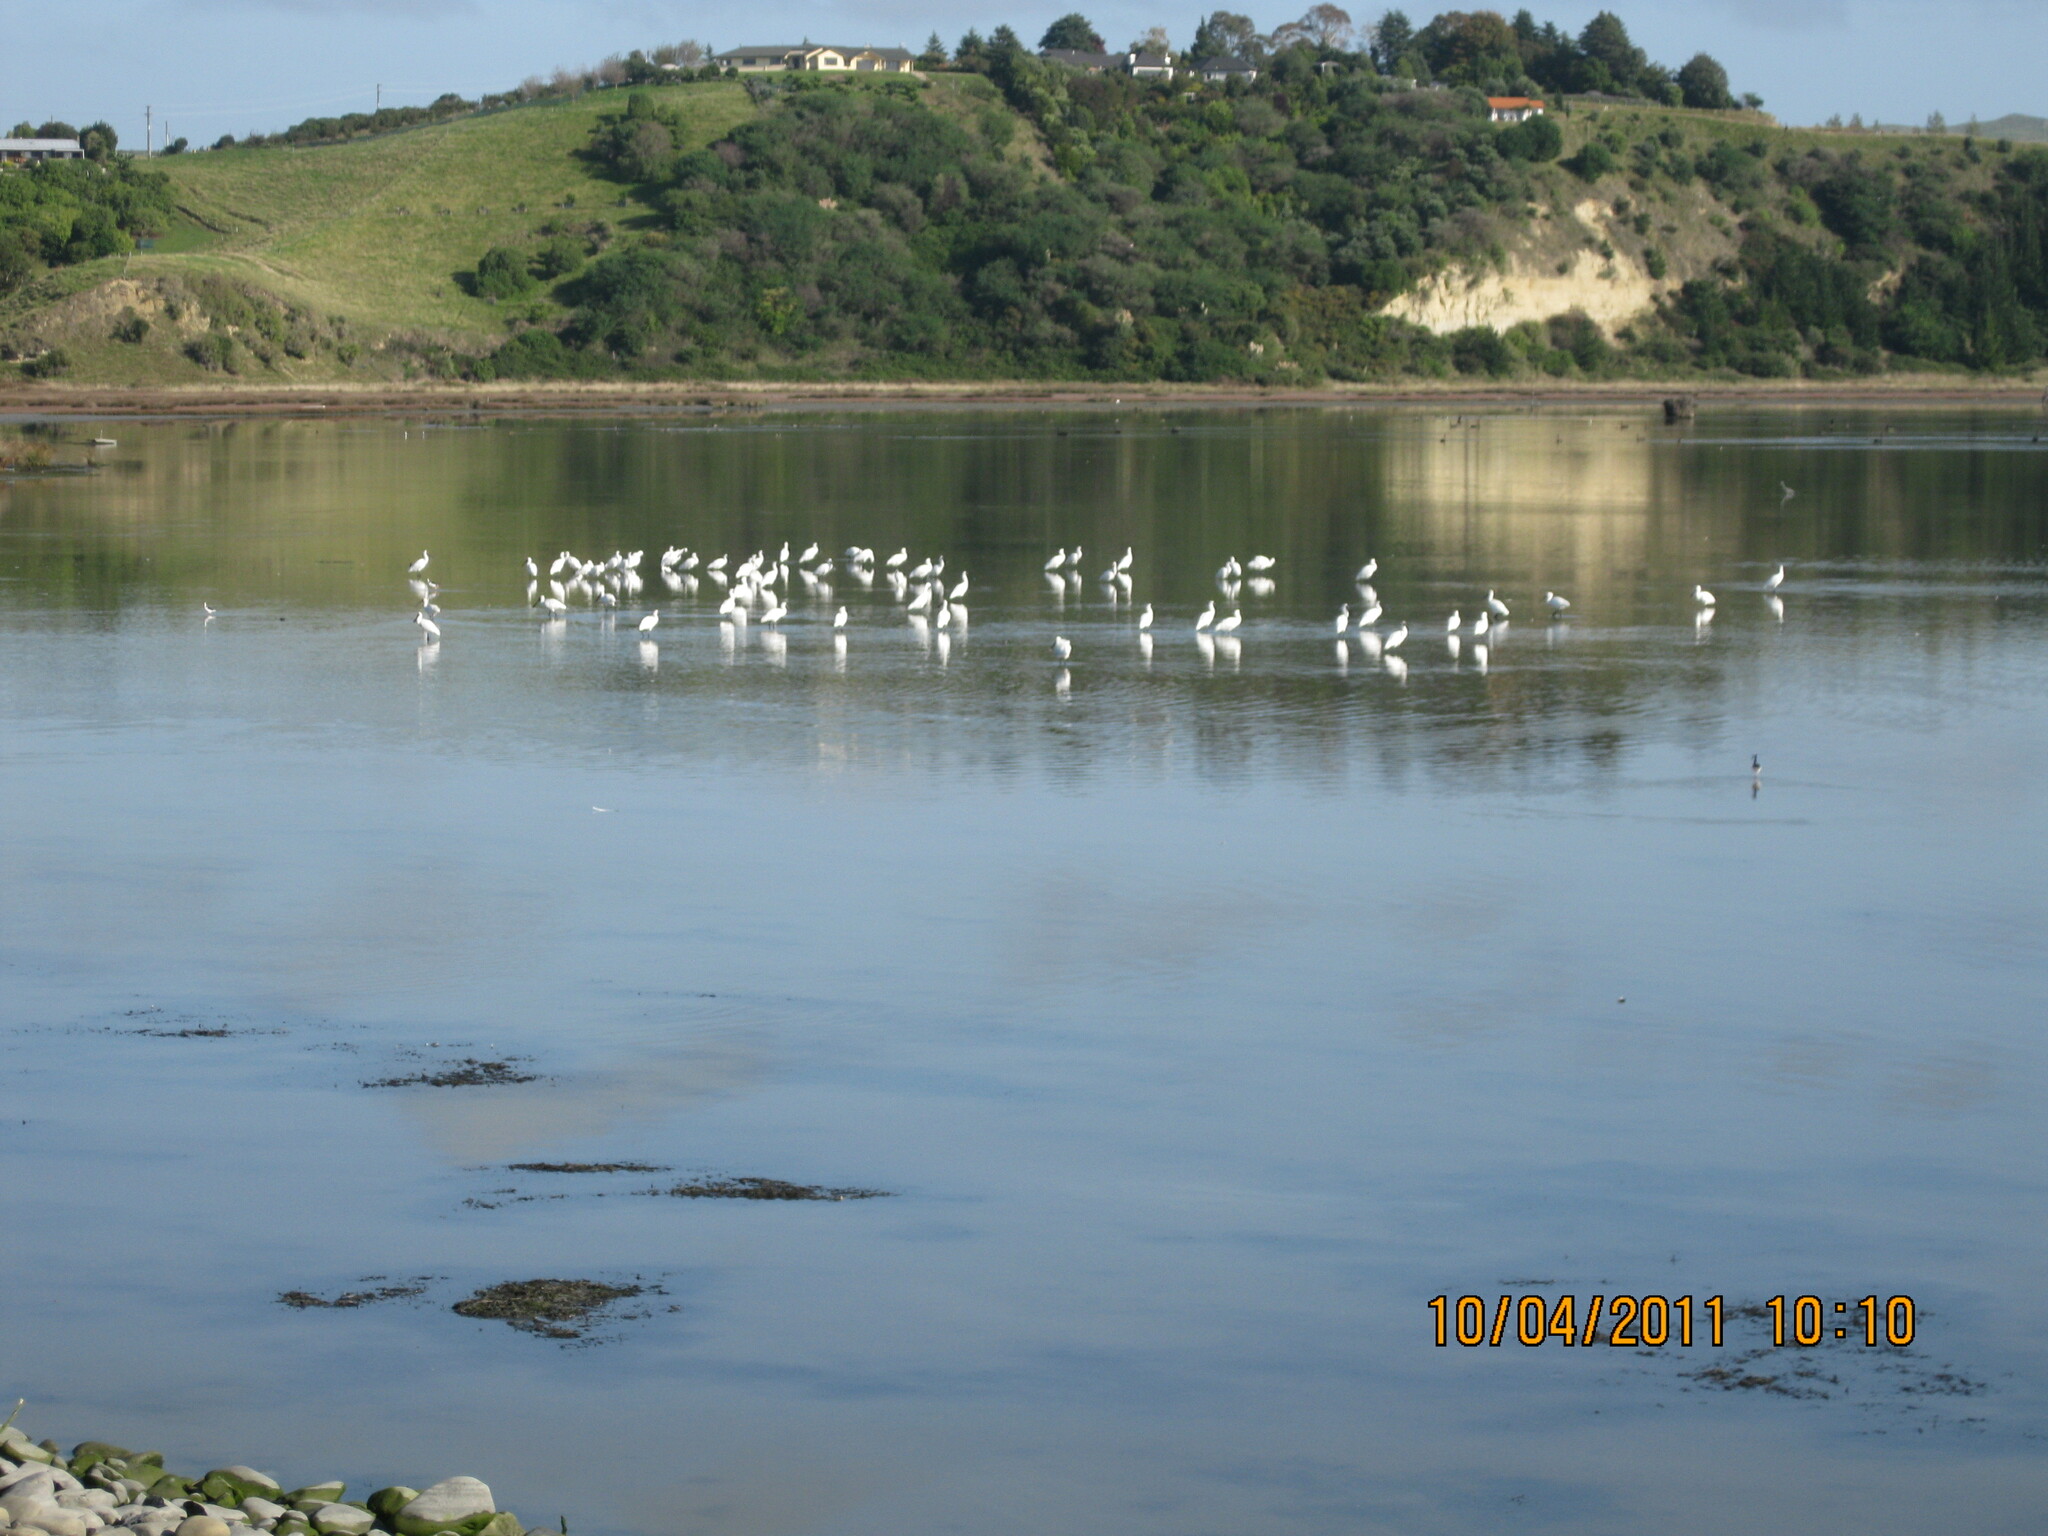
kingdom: Animalia
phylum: Chordata
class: Aves
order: Pelecaniformes
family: Threskiornithidae
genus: Platalea
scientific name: Platalea regia
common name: Royal spoonbill
